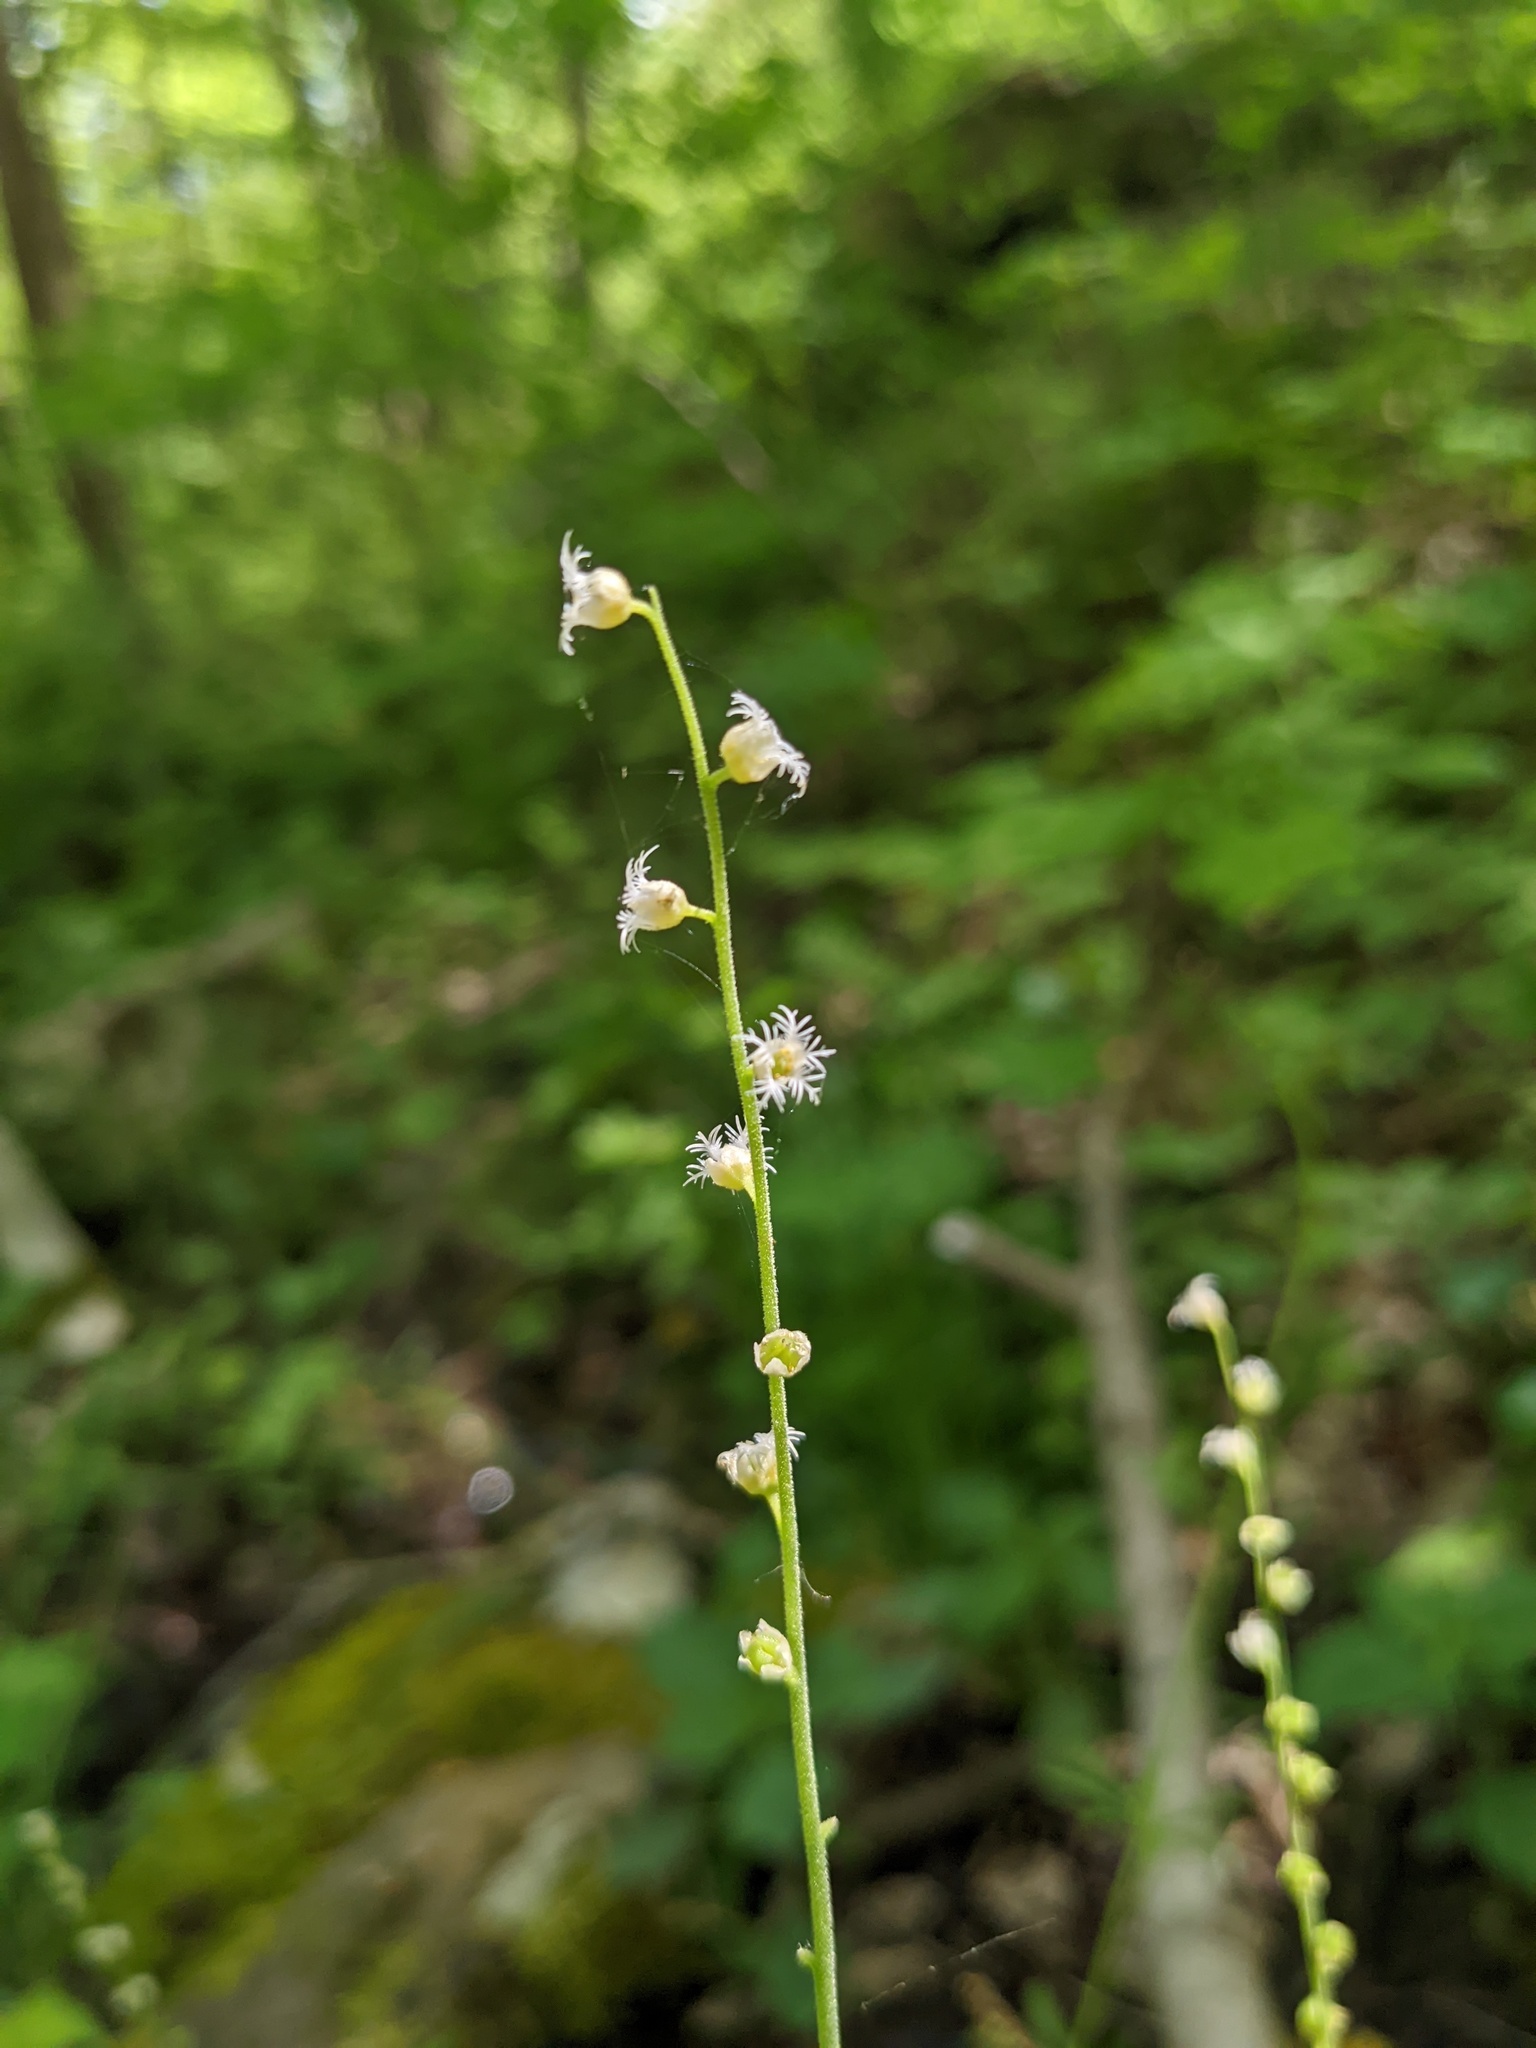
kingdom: Plantae
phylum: Tracheophyta
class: Magnoliopsida
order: Saxifragales
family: Saxifragaceae
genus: Mitella
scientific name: Mitella diphylla
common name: Coolwort
